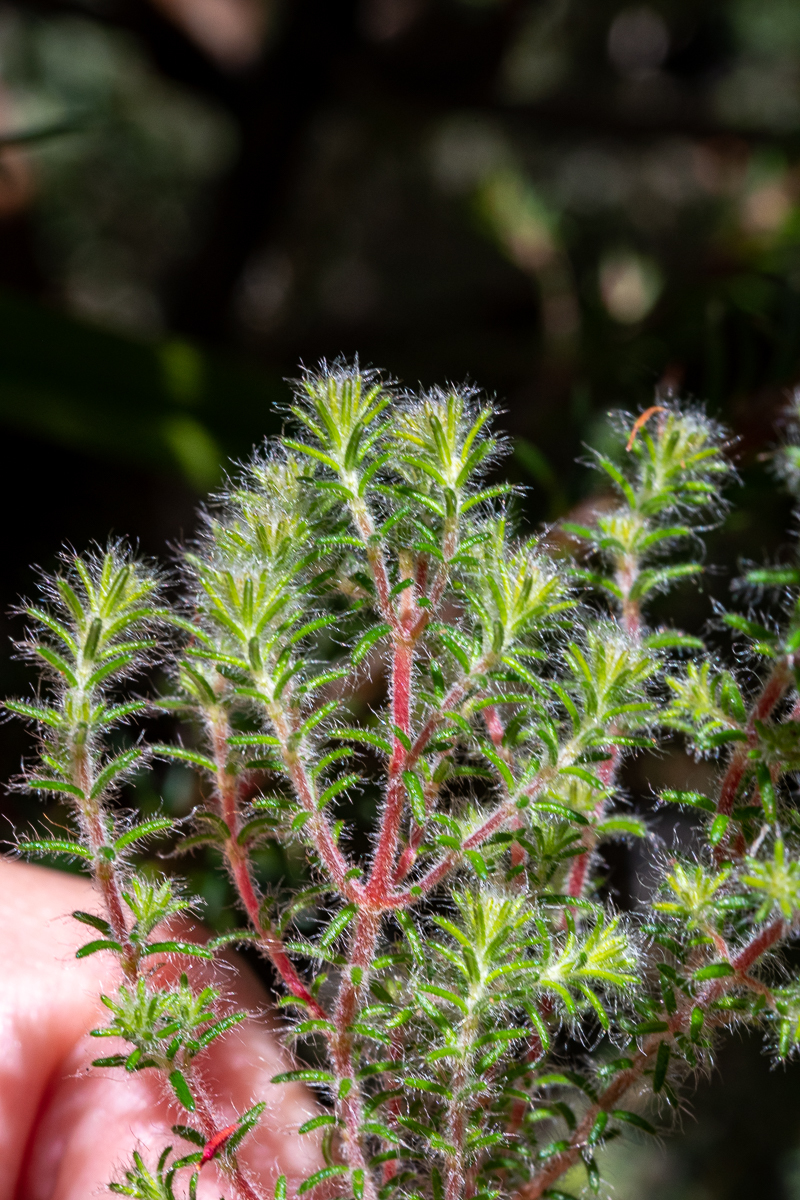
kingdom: Plantae
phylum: Tracheophyta
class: Magnoliopsida
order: Ericales
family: Ericaceae
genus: Erica
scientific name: Erica cerinthoides
